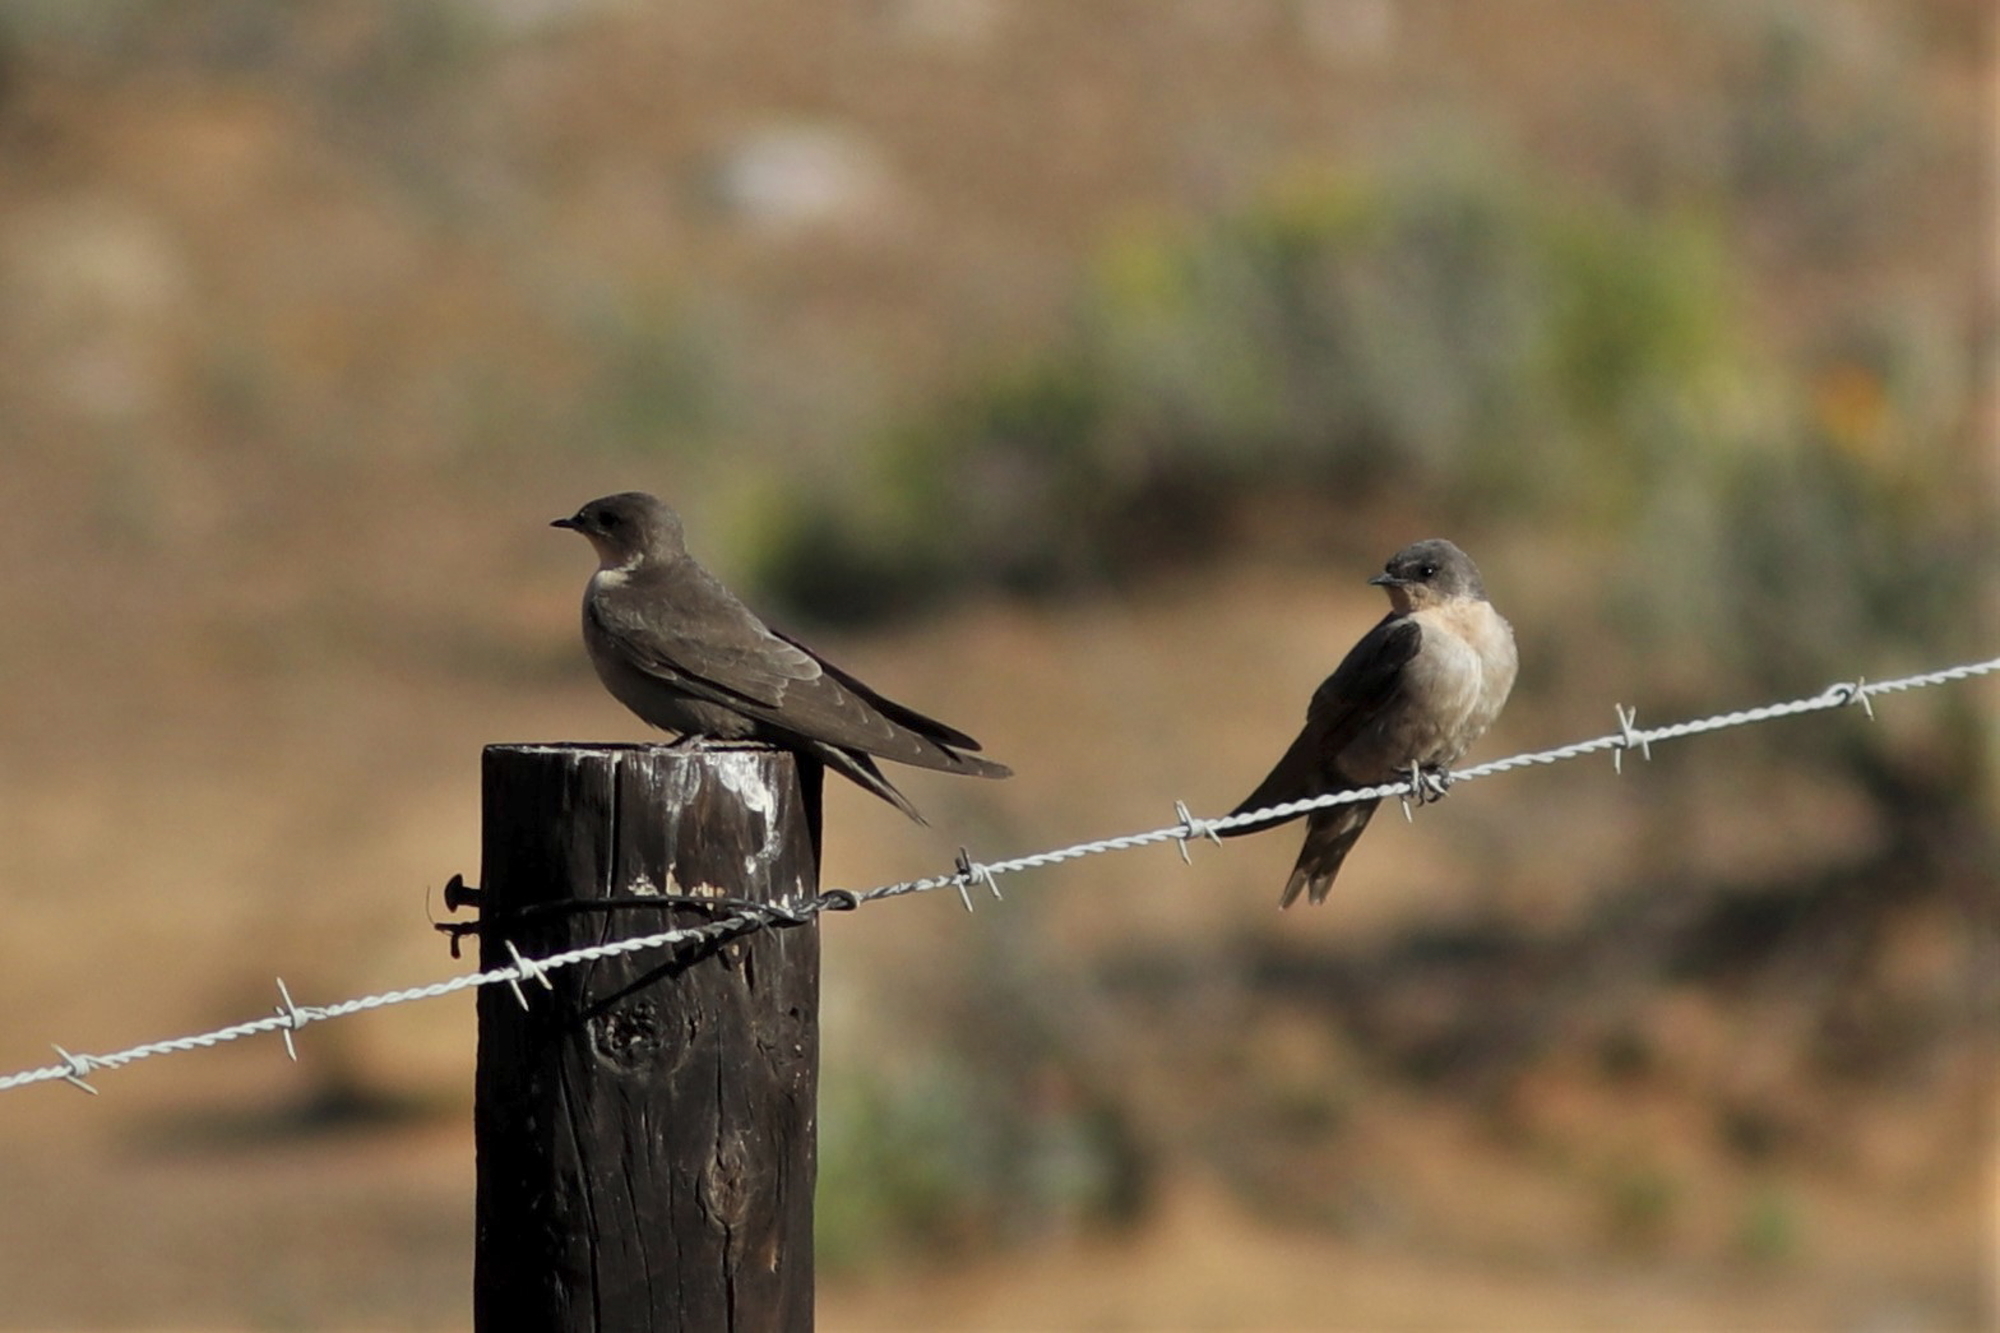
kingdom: Animalia
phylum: Chordata
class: Aves
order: Passeriformes
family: Hirundinidae
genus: Ptyonoprogne
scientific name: Ptyonoprogne fuligula
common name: Rock martin
